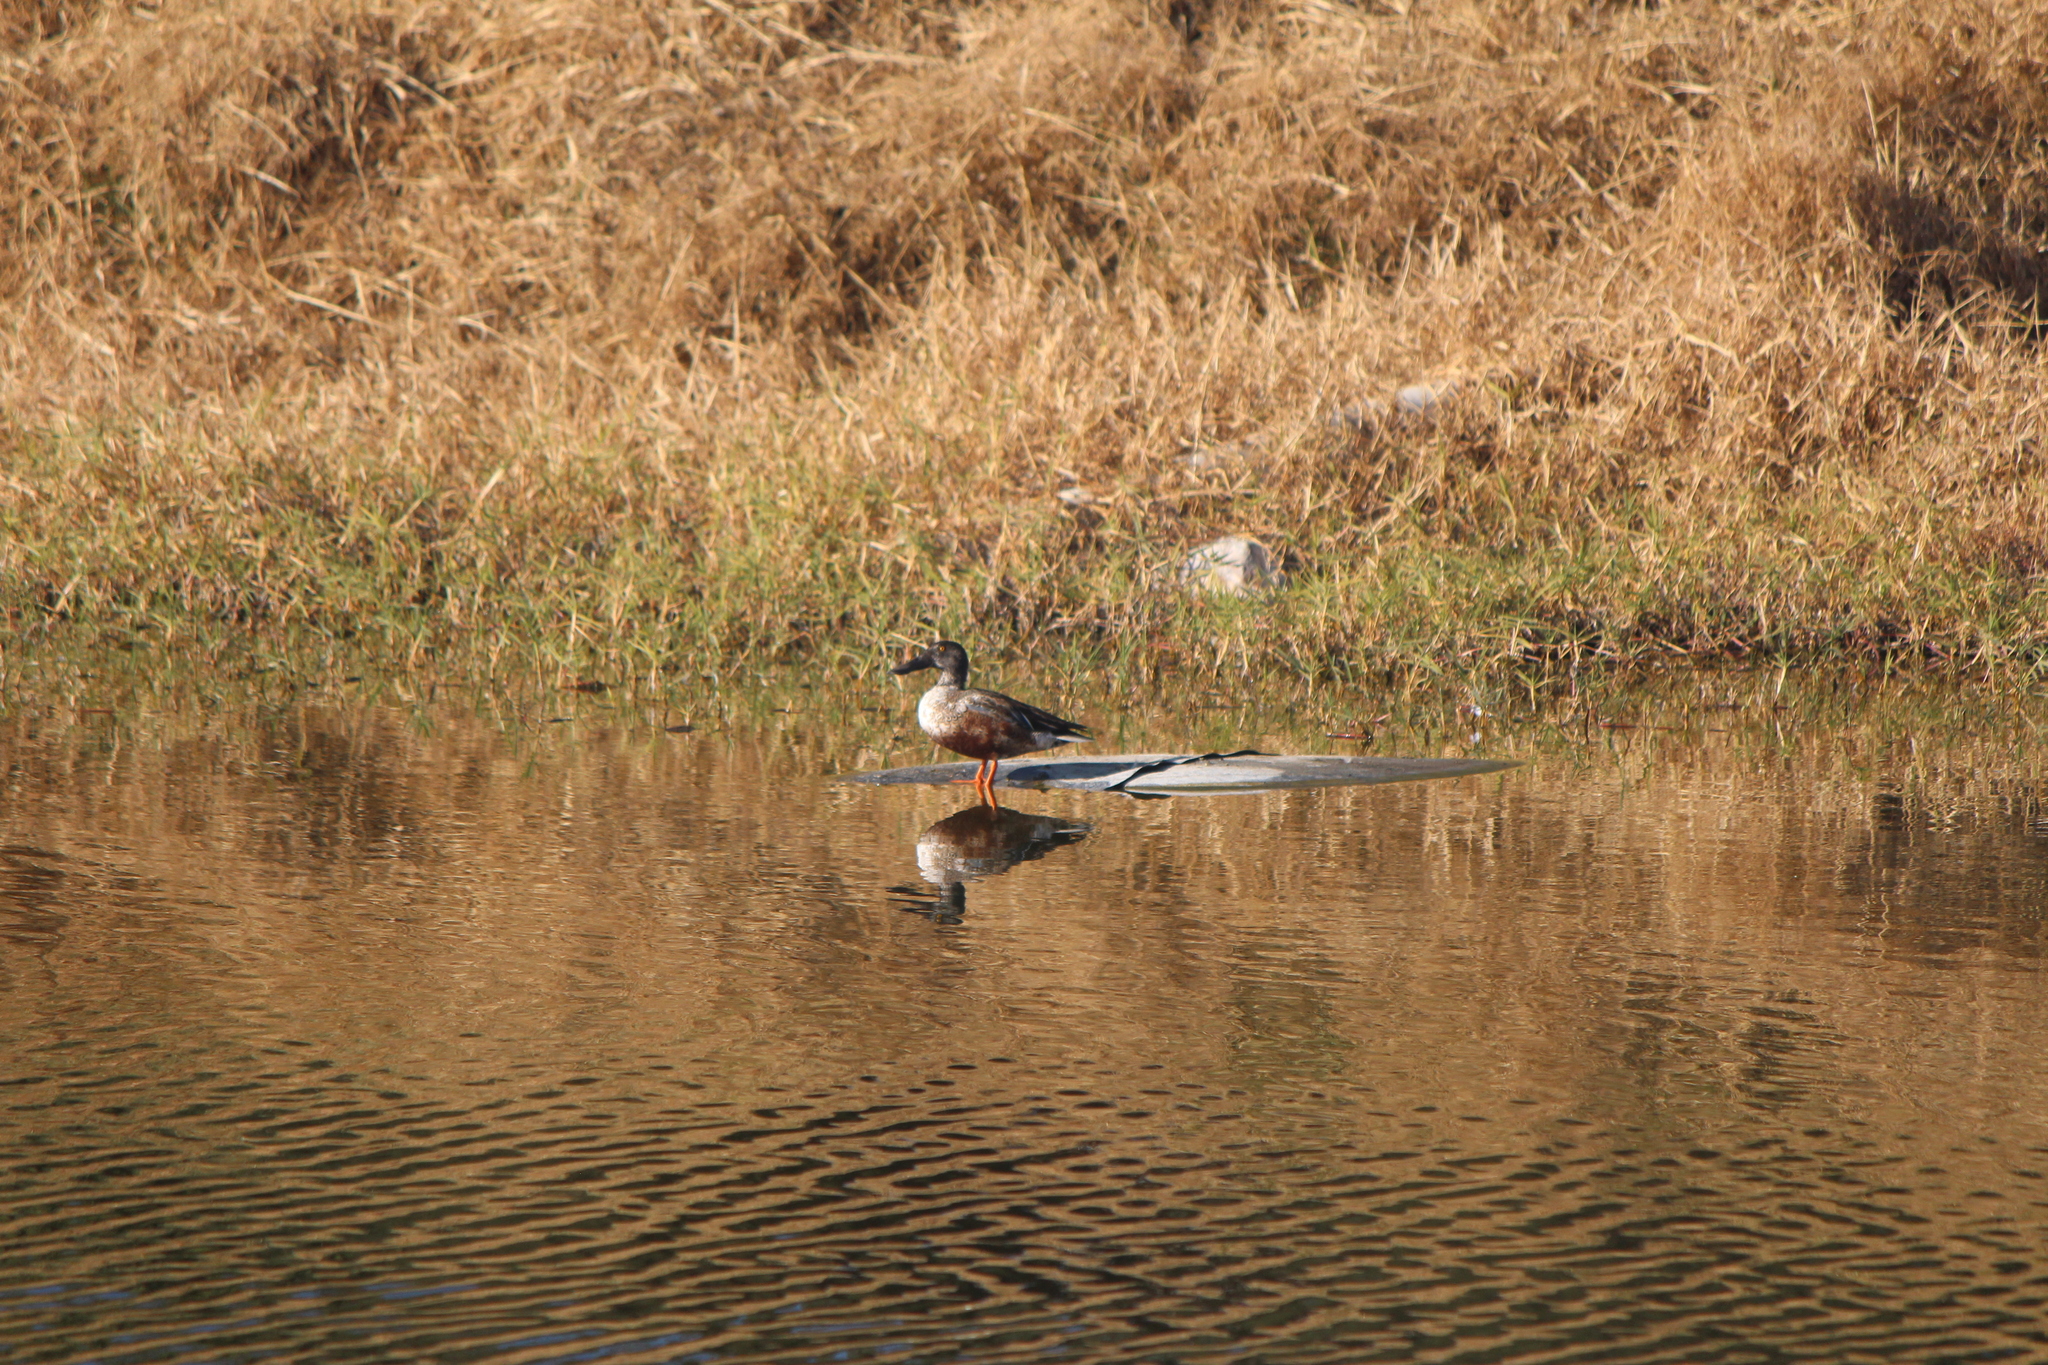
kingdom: Animalia
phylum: Chordata
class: Aves
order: Anseriformes
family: Anatidae
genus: Spatula
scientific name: Spatula clypeata
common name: Northern shoveler
